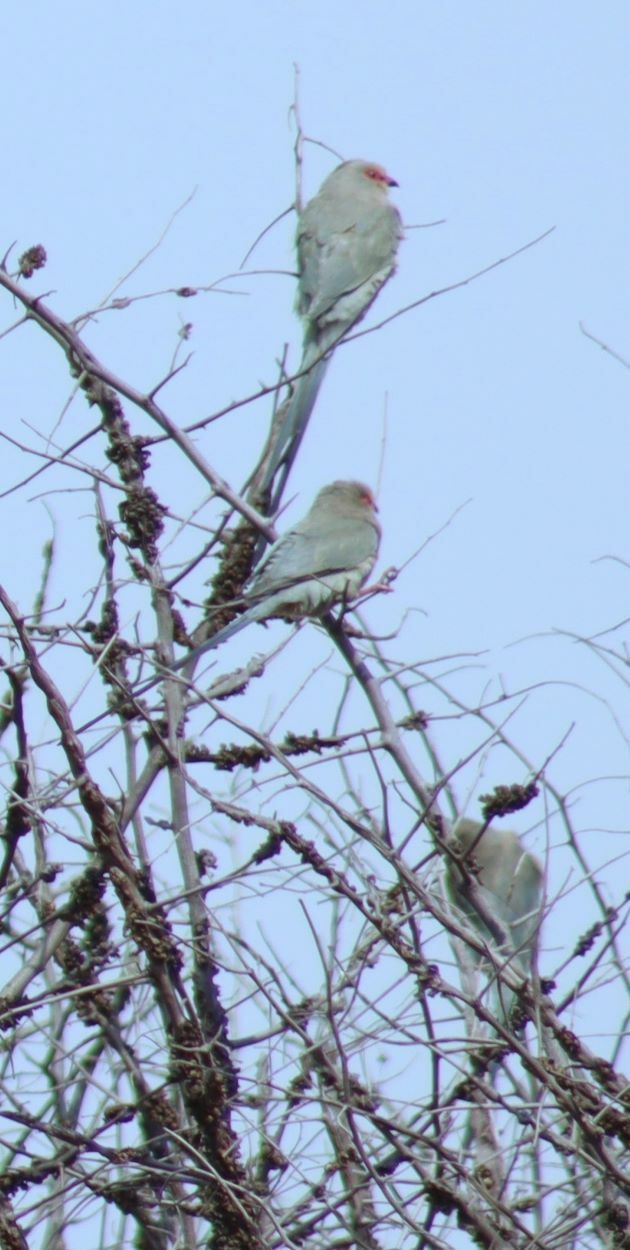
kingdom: Animalia
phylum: Chordata
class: Aves
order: Coliiformes
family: Coliidae
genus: Urocolius
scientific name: Urocolius indicus
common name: Red-faced mousebird
